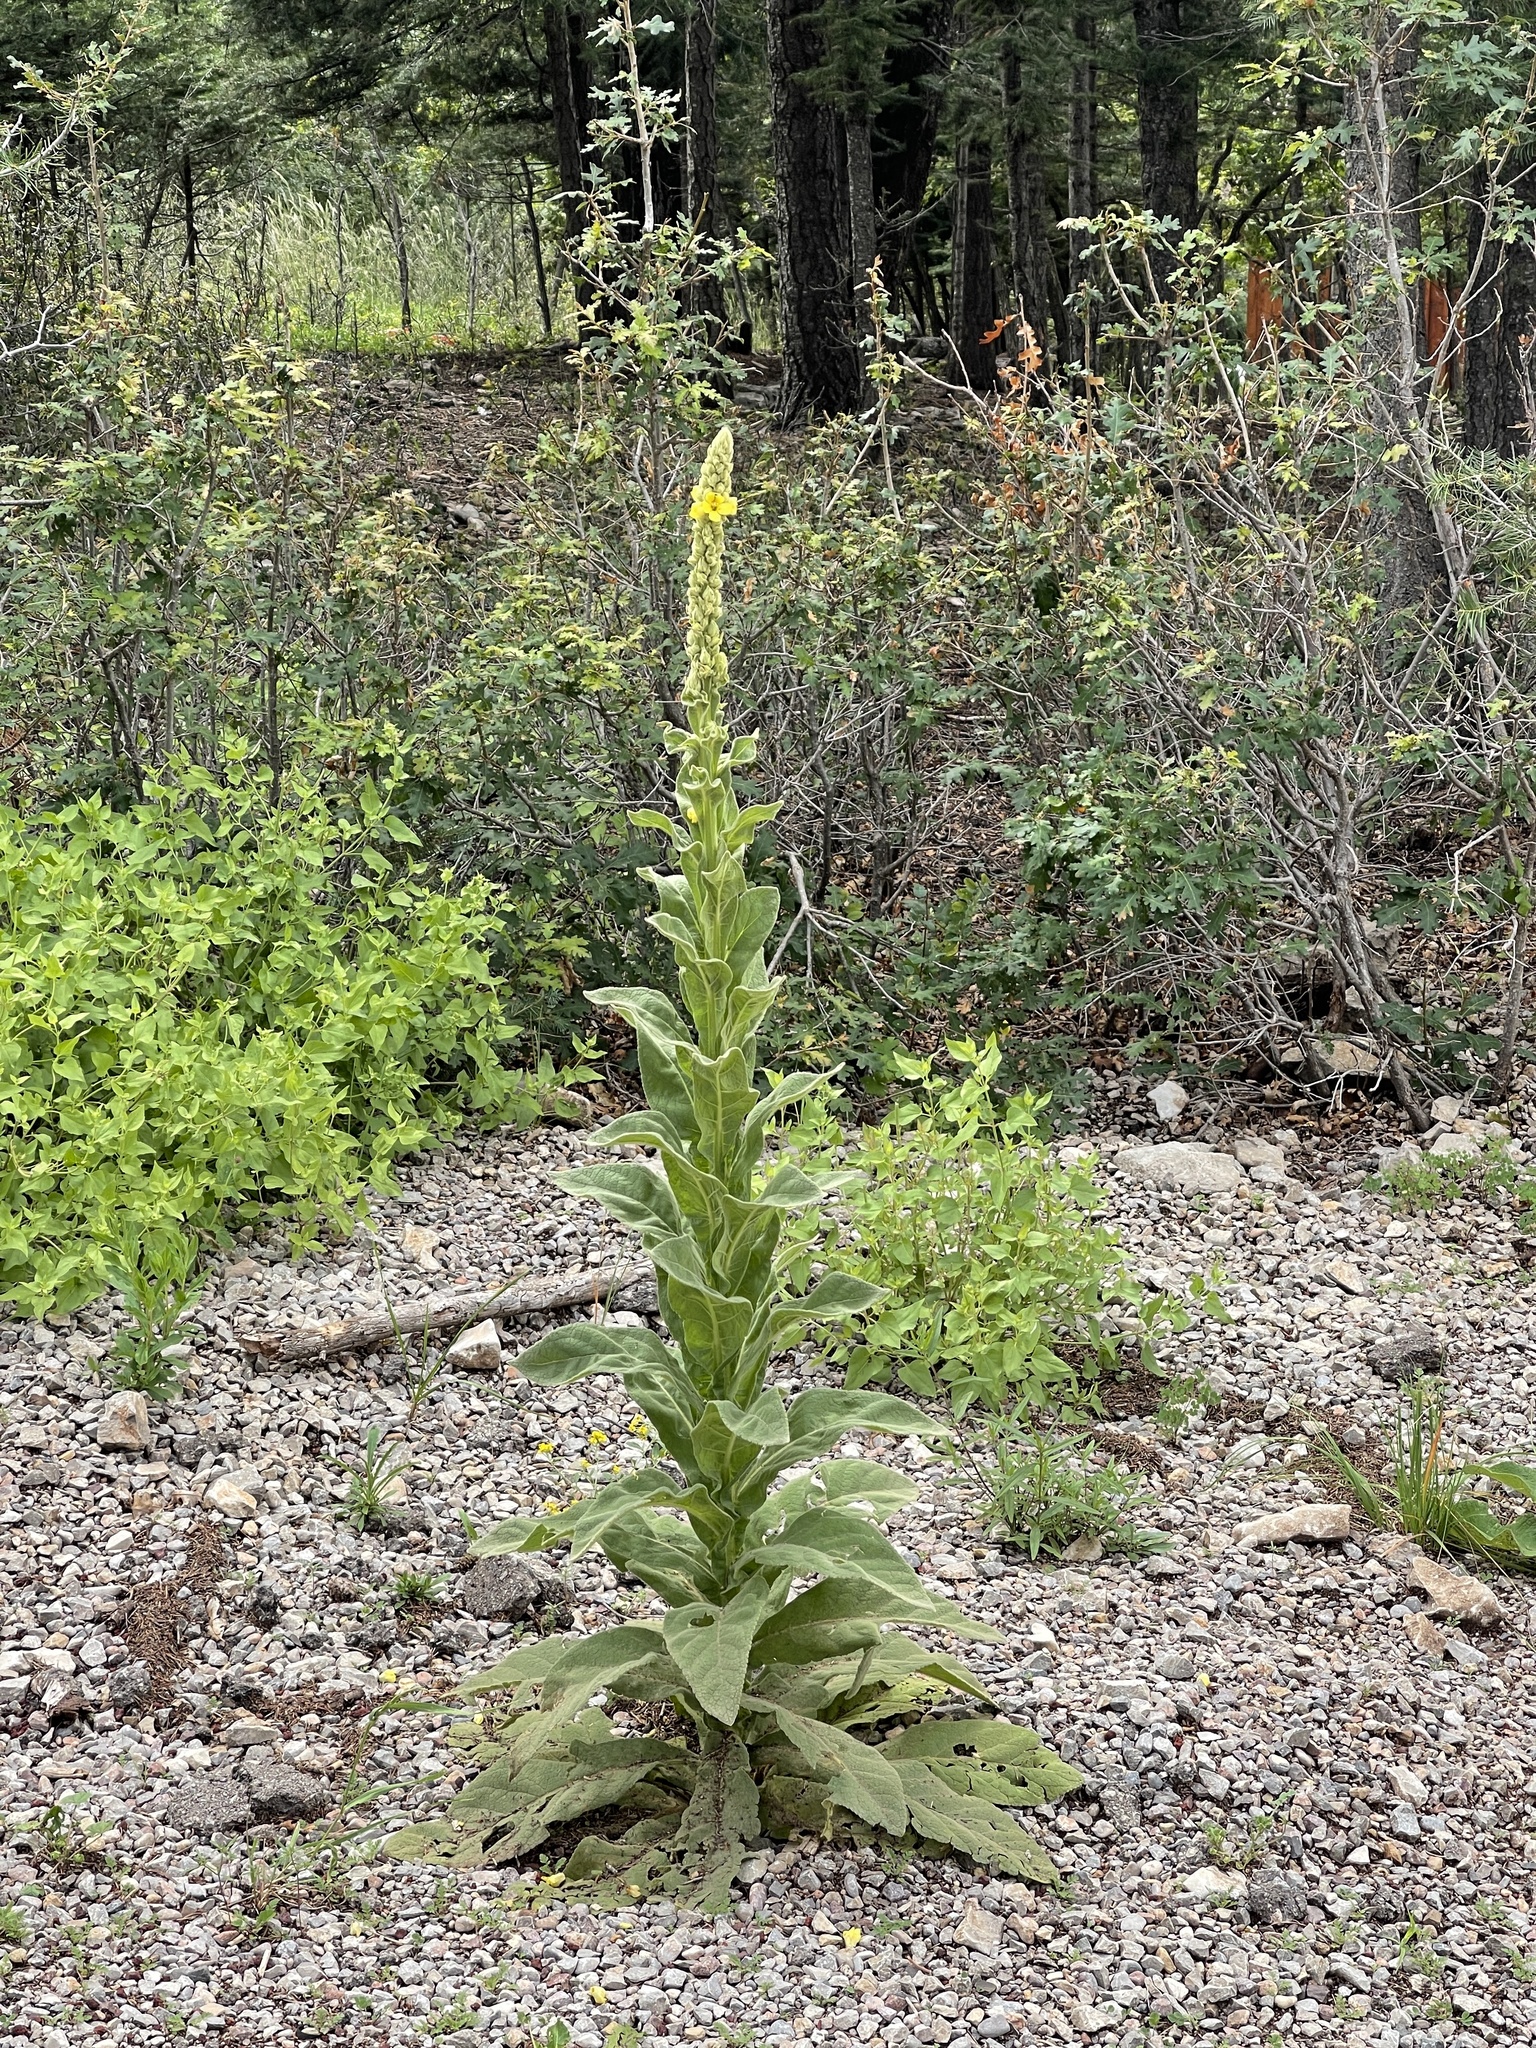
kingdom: Plantae
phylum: Tracheophyta
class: Magnoliopsida
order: Lamiales
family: Scrophulariaceae
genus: Verbascum
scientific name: Verbascum thapsus
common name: Common mullein
